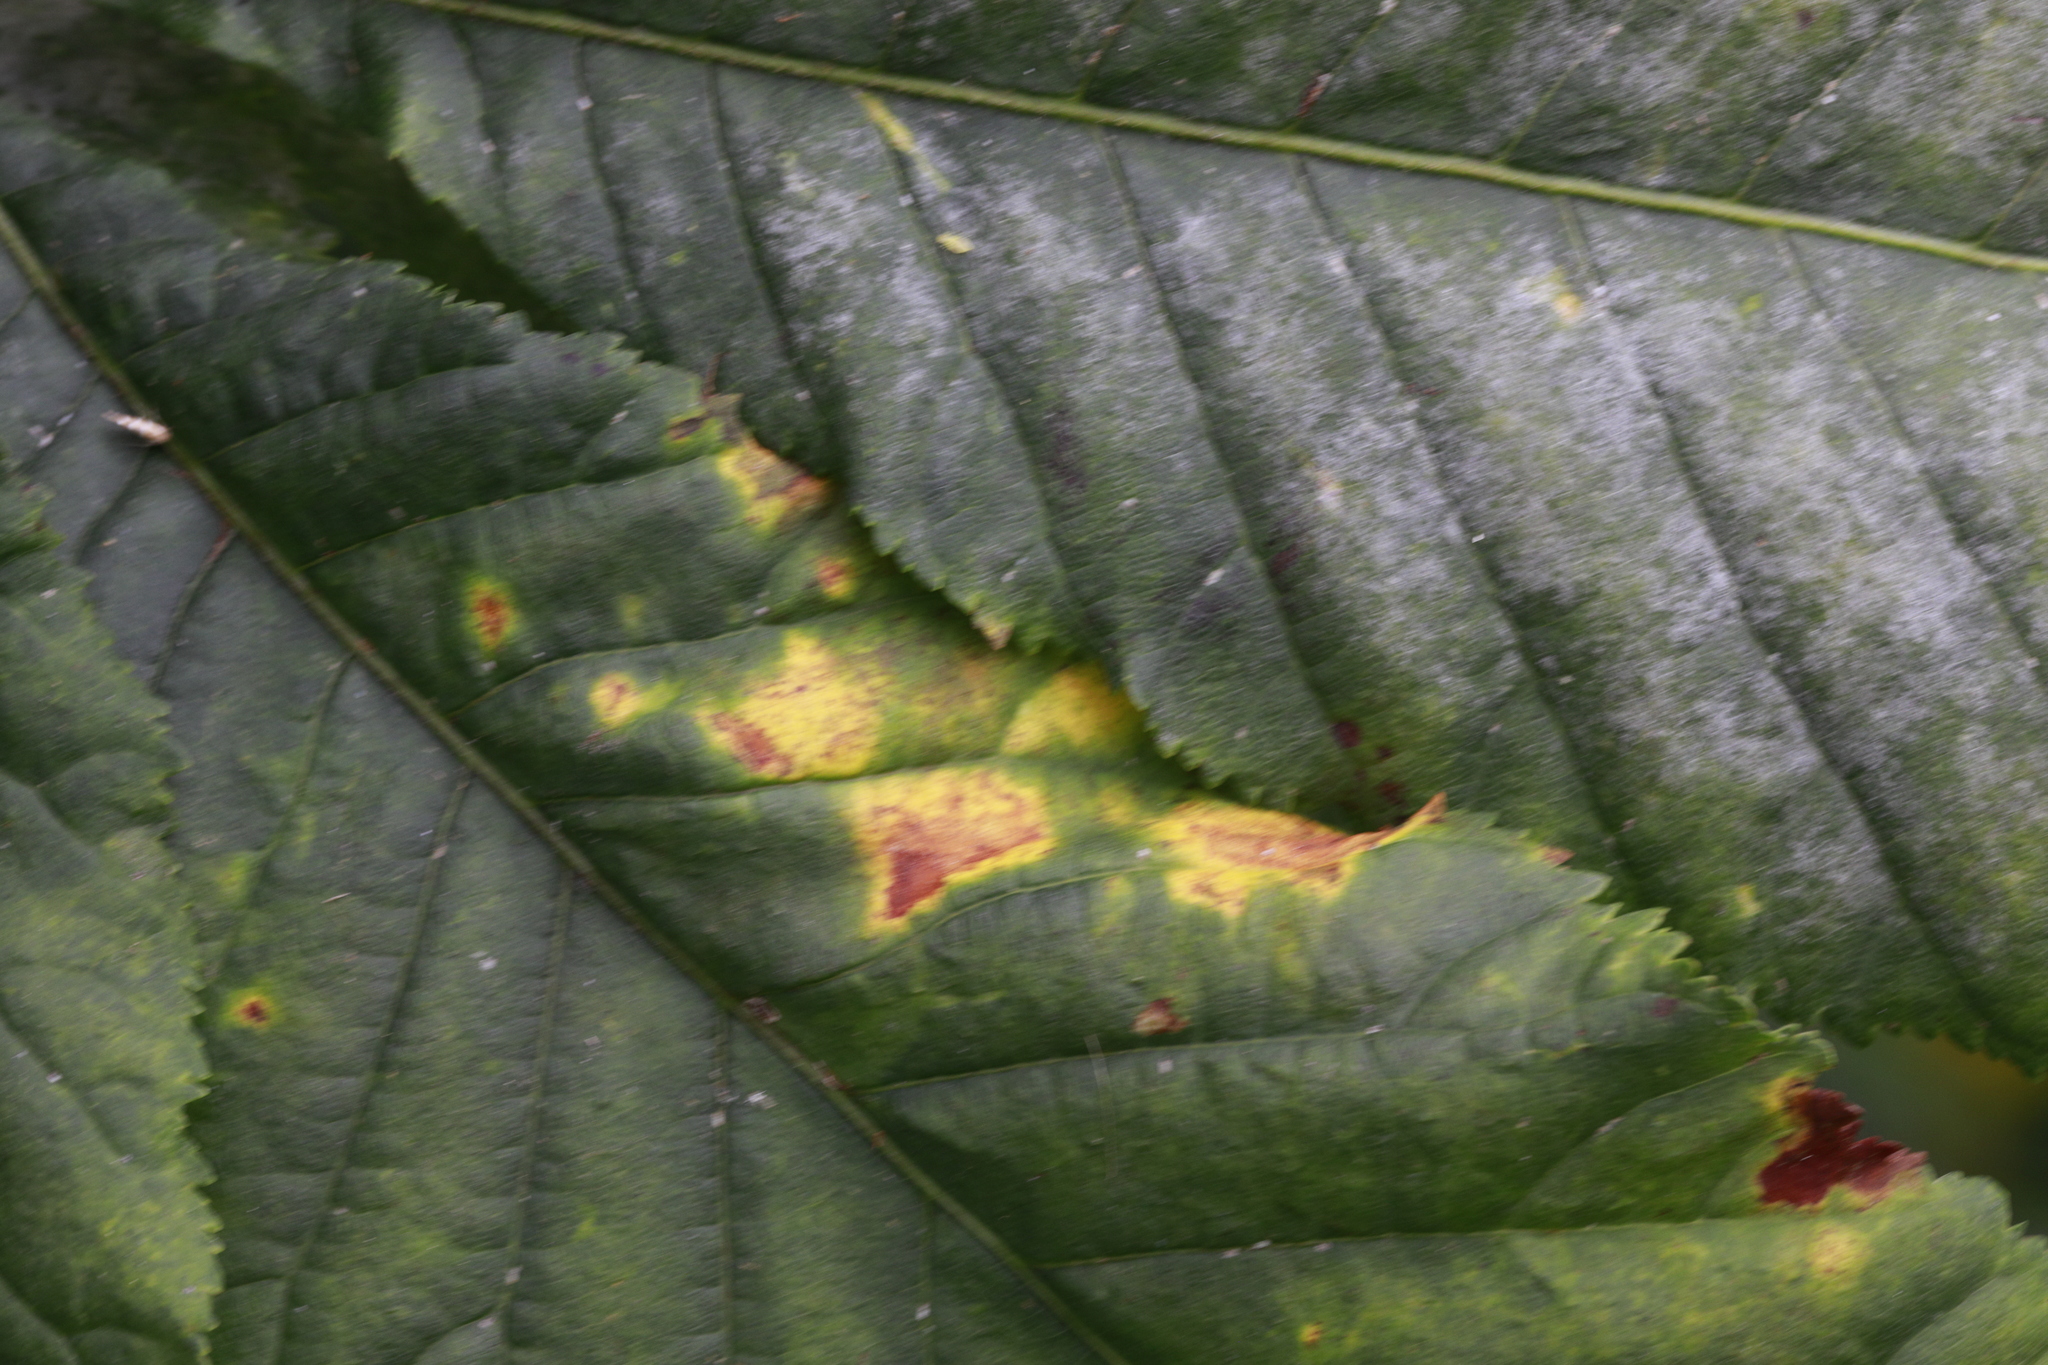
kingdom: Fungi
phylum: Ascomycota
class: Dothideomycetes
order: Botryosphaeriales
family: Phyllostictaceae
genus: Phyllosticta
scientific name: Phyllosticta paviae
